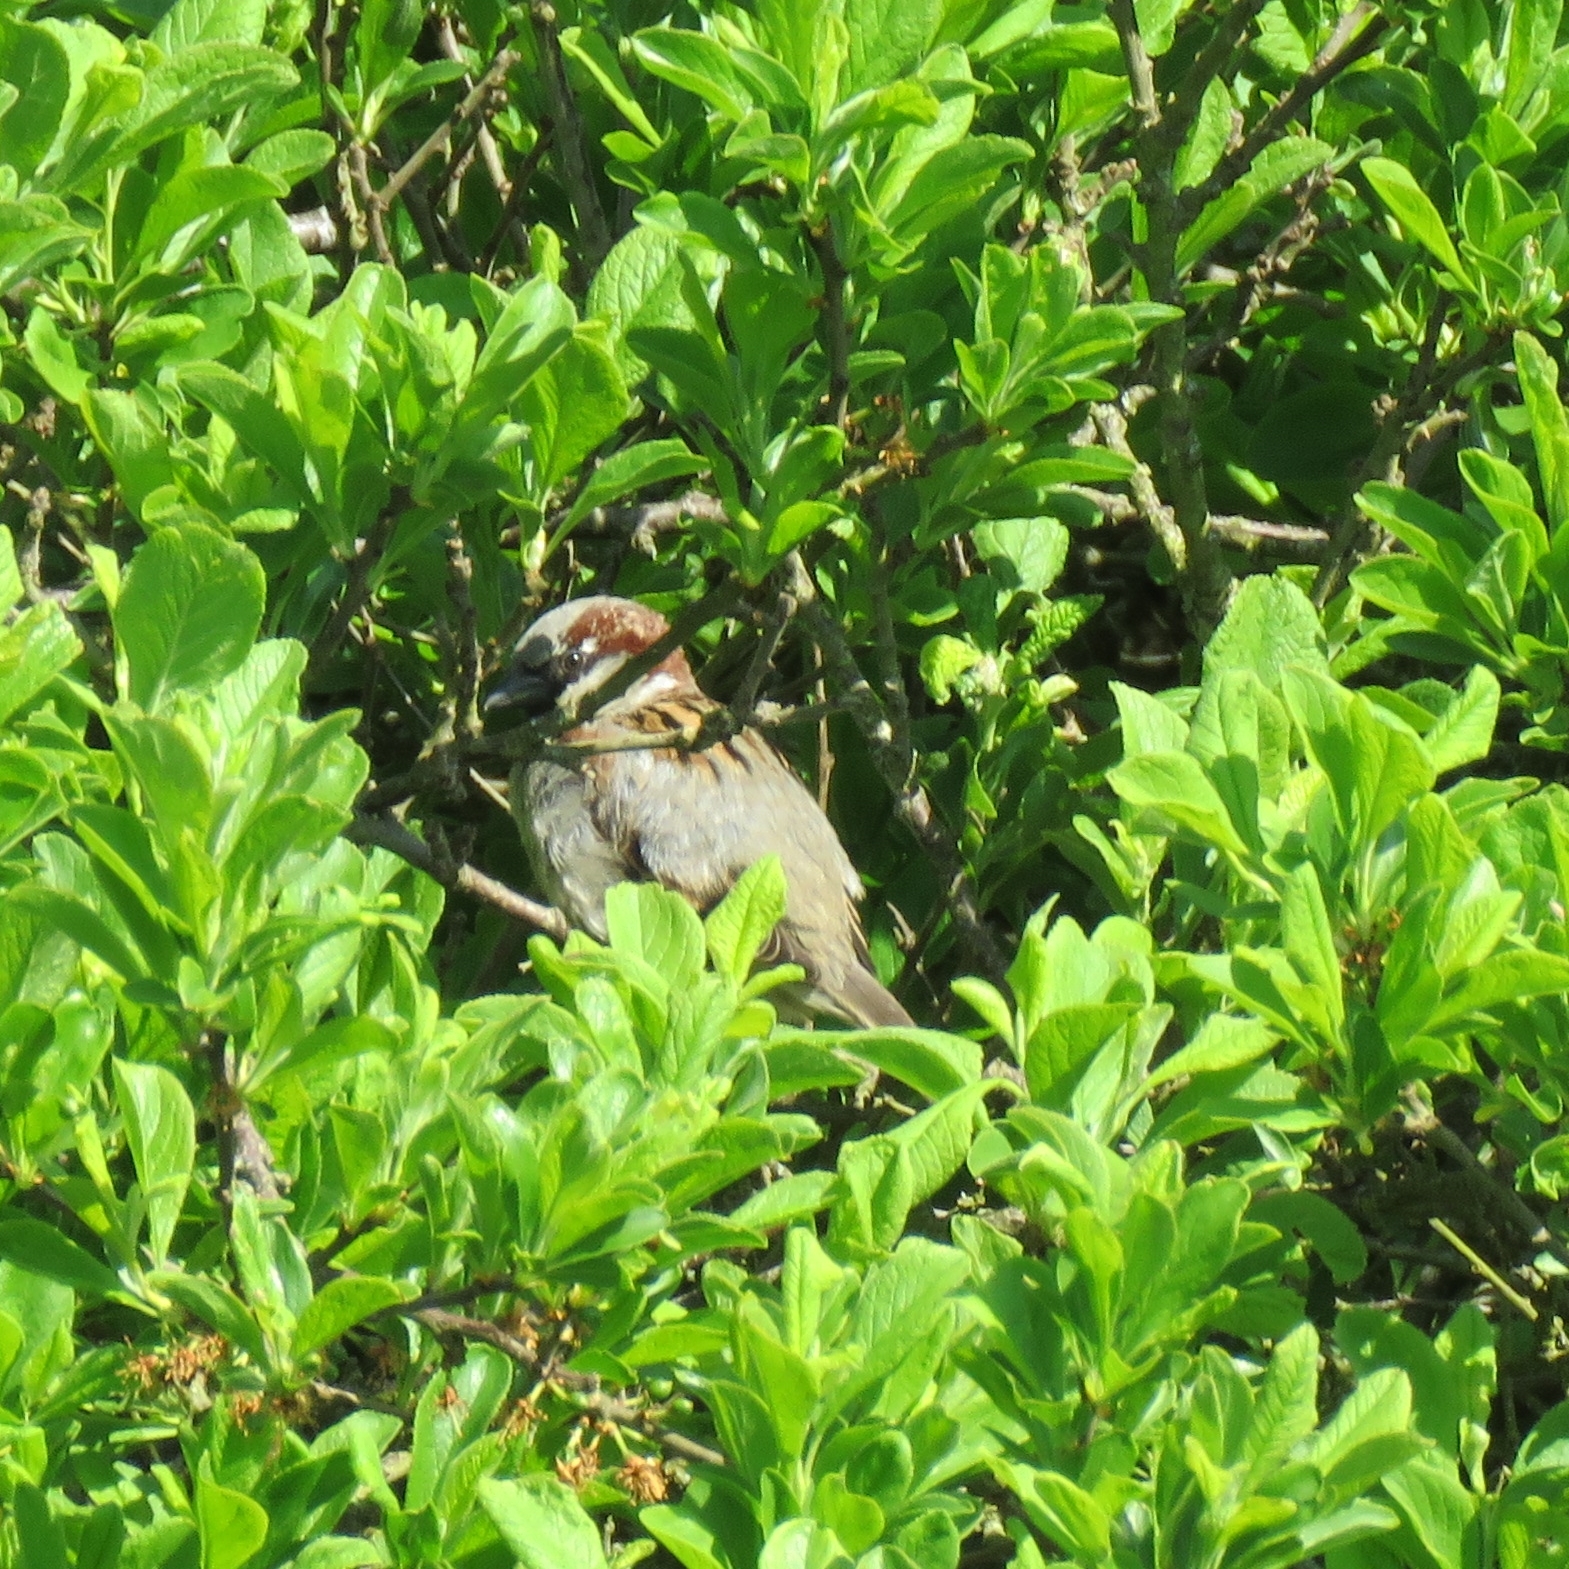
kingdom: Animalia
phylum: Chordata
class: Aves
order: Passeriformes
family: Passeridae
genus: Passer
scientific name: Passer domesticus
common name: House sparrow
